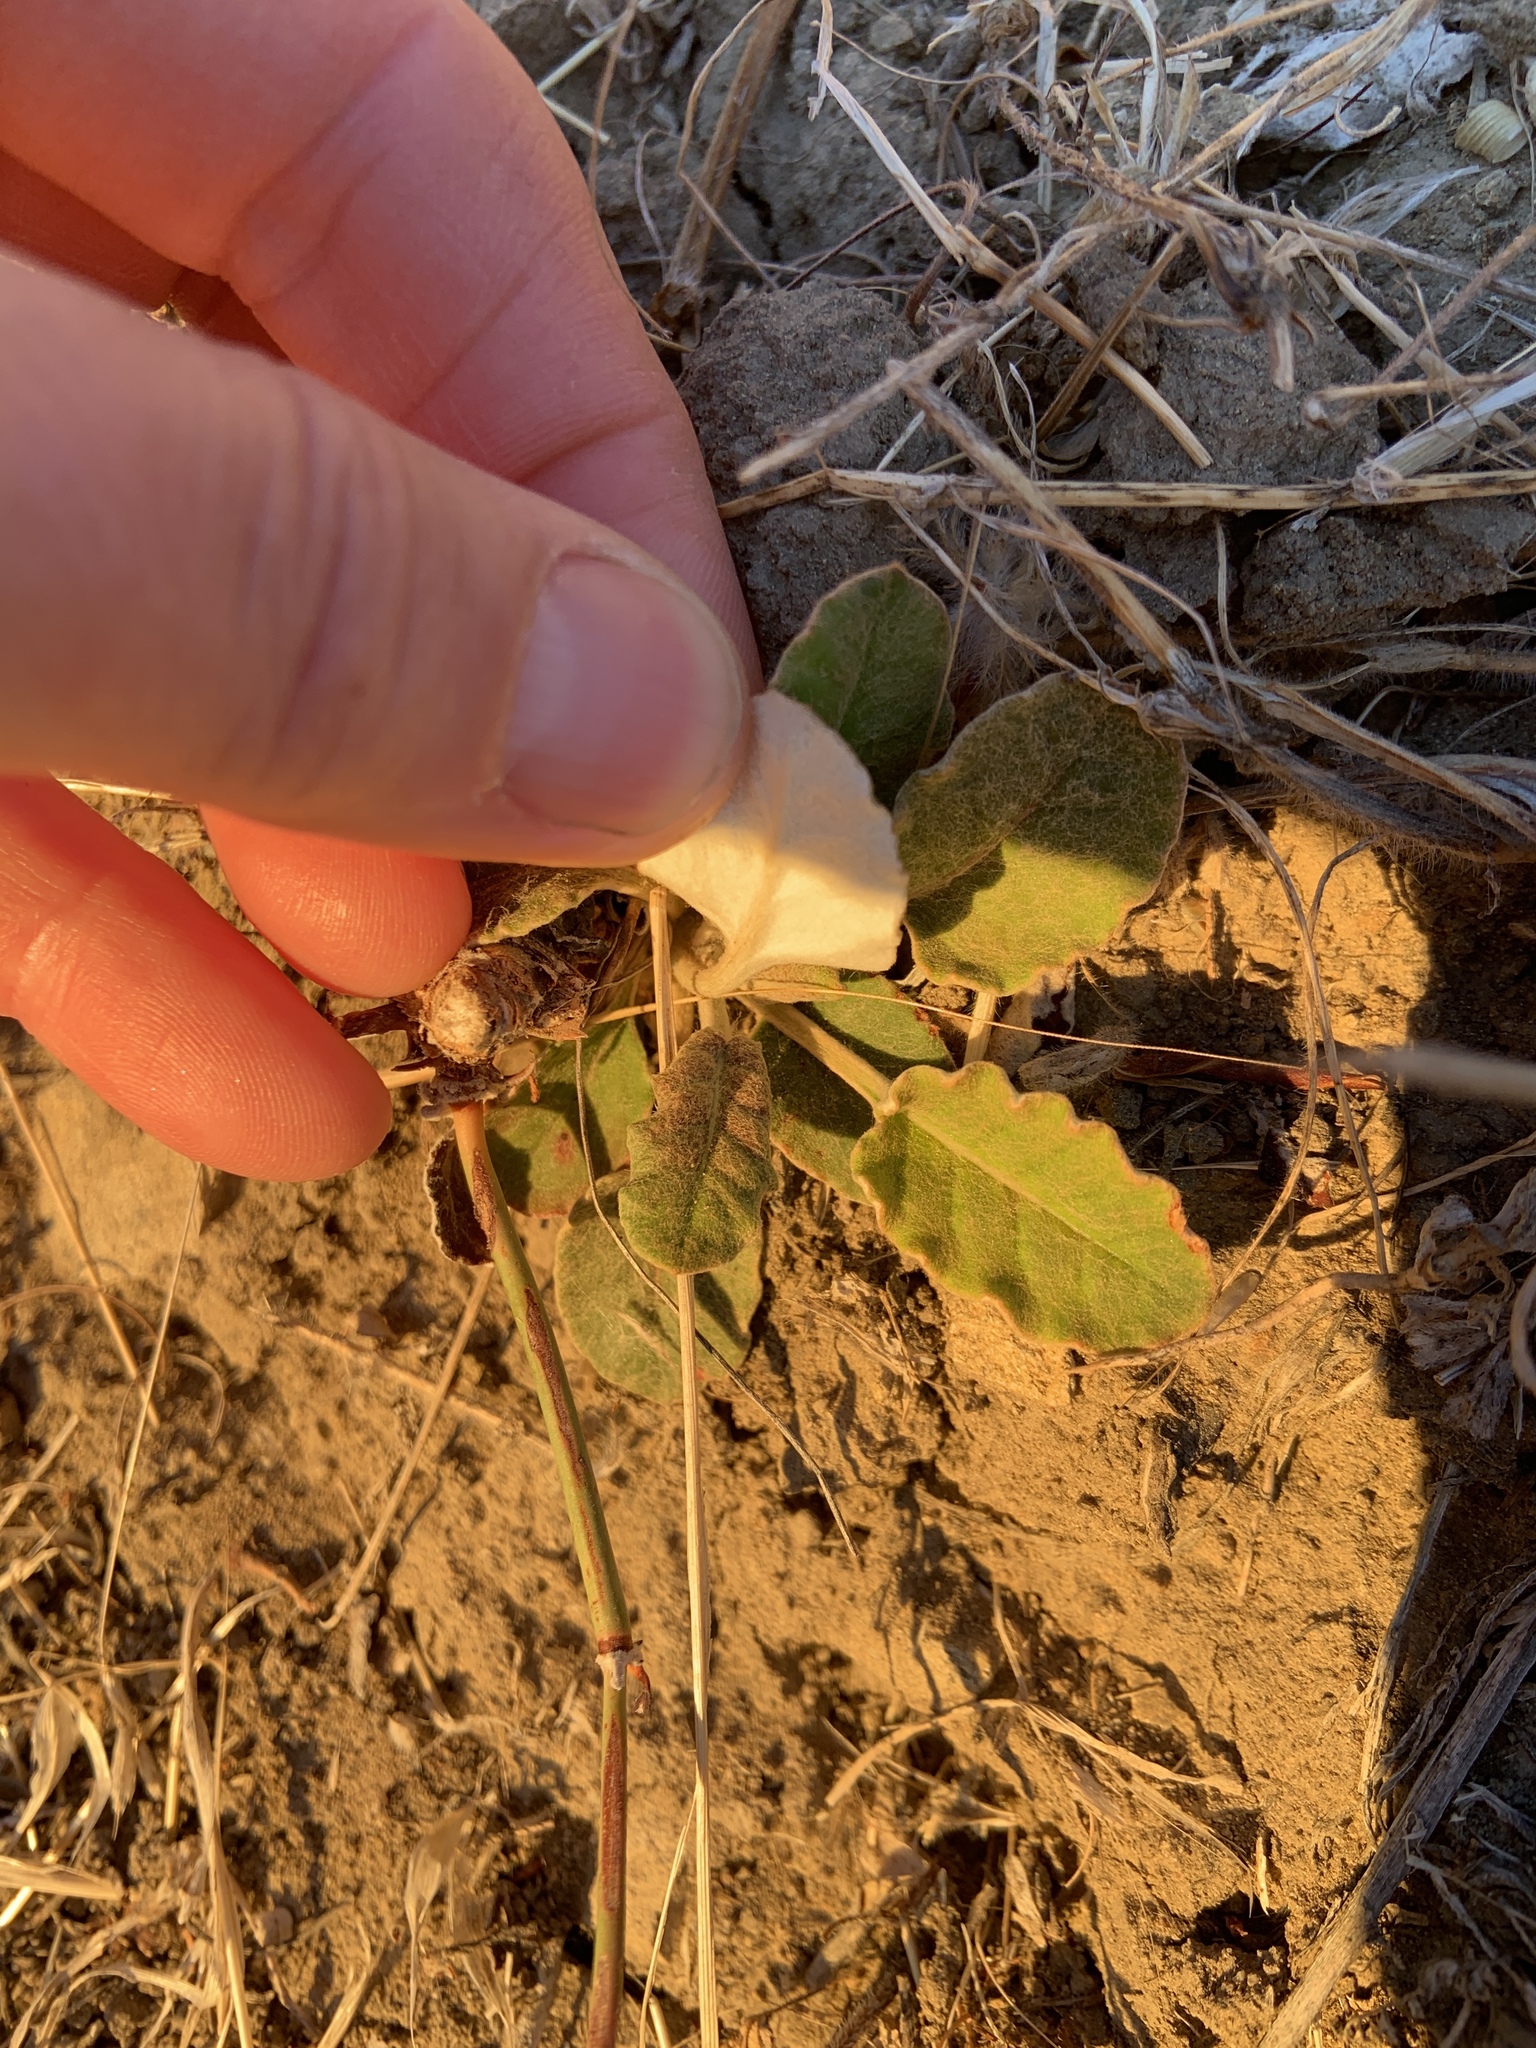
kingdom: Plantae
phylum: Tracheophyta
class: Magnoliopsida
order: Caryophyllales
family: Polygonaceae
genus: Eriogonum
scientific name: Eriogonum nudum
